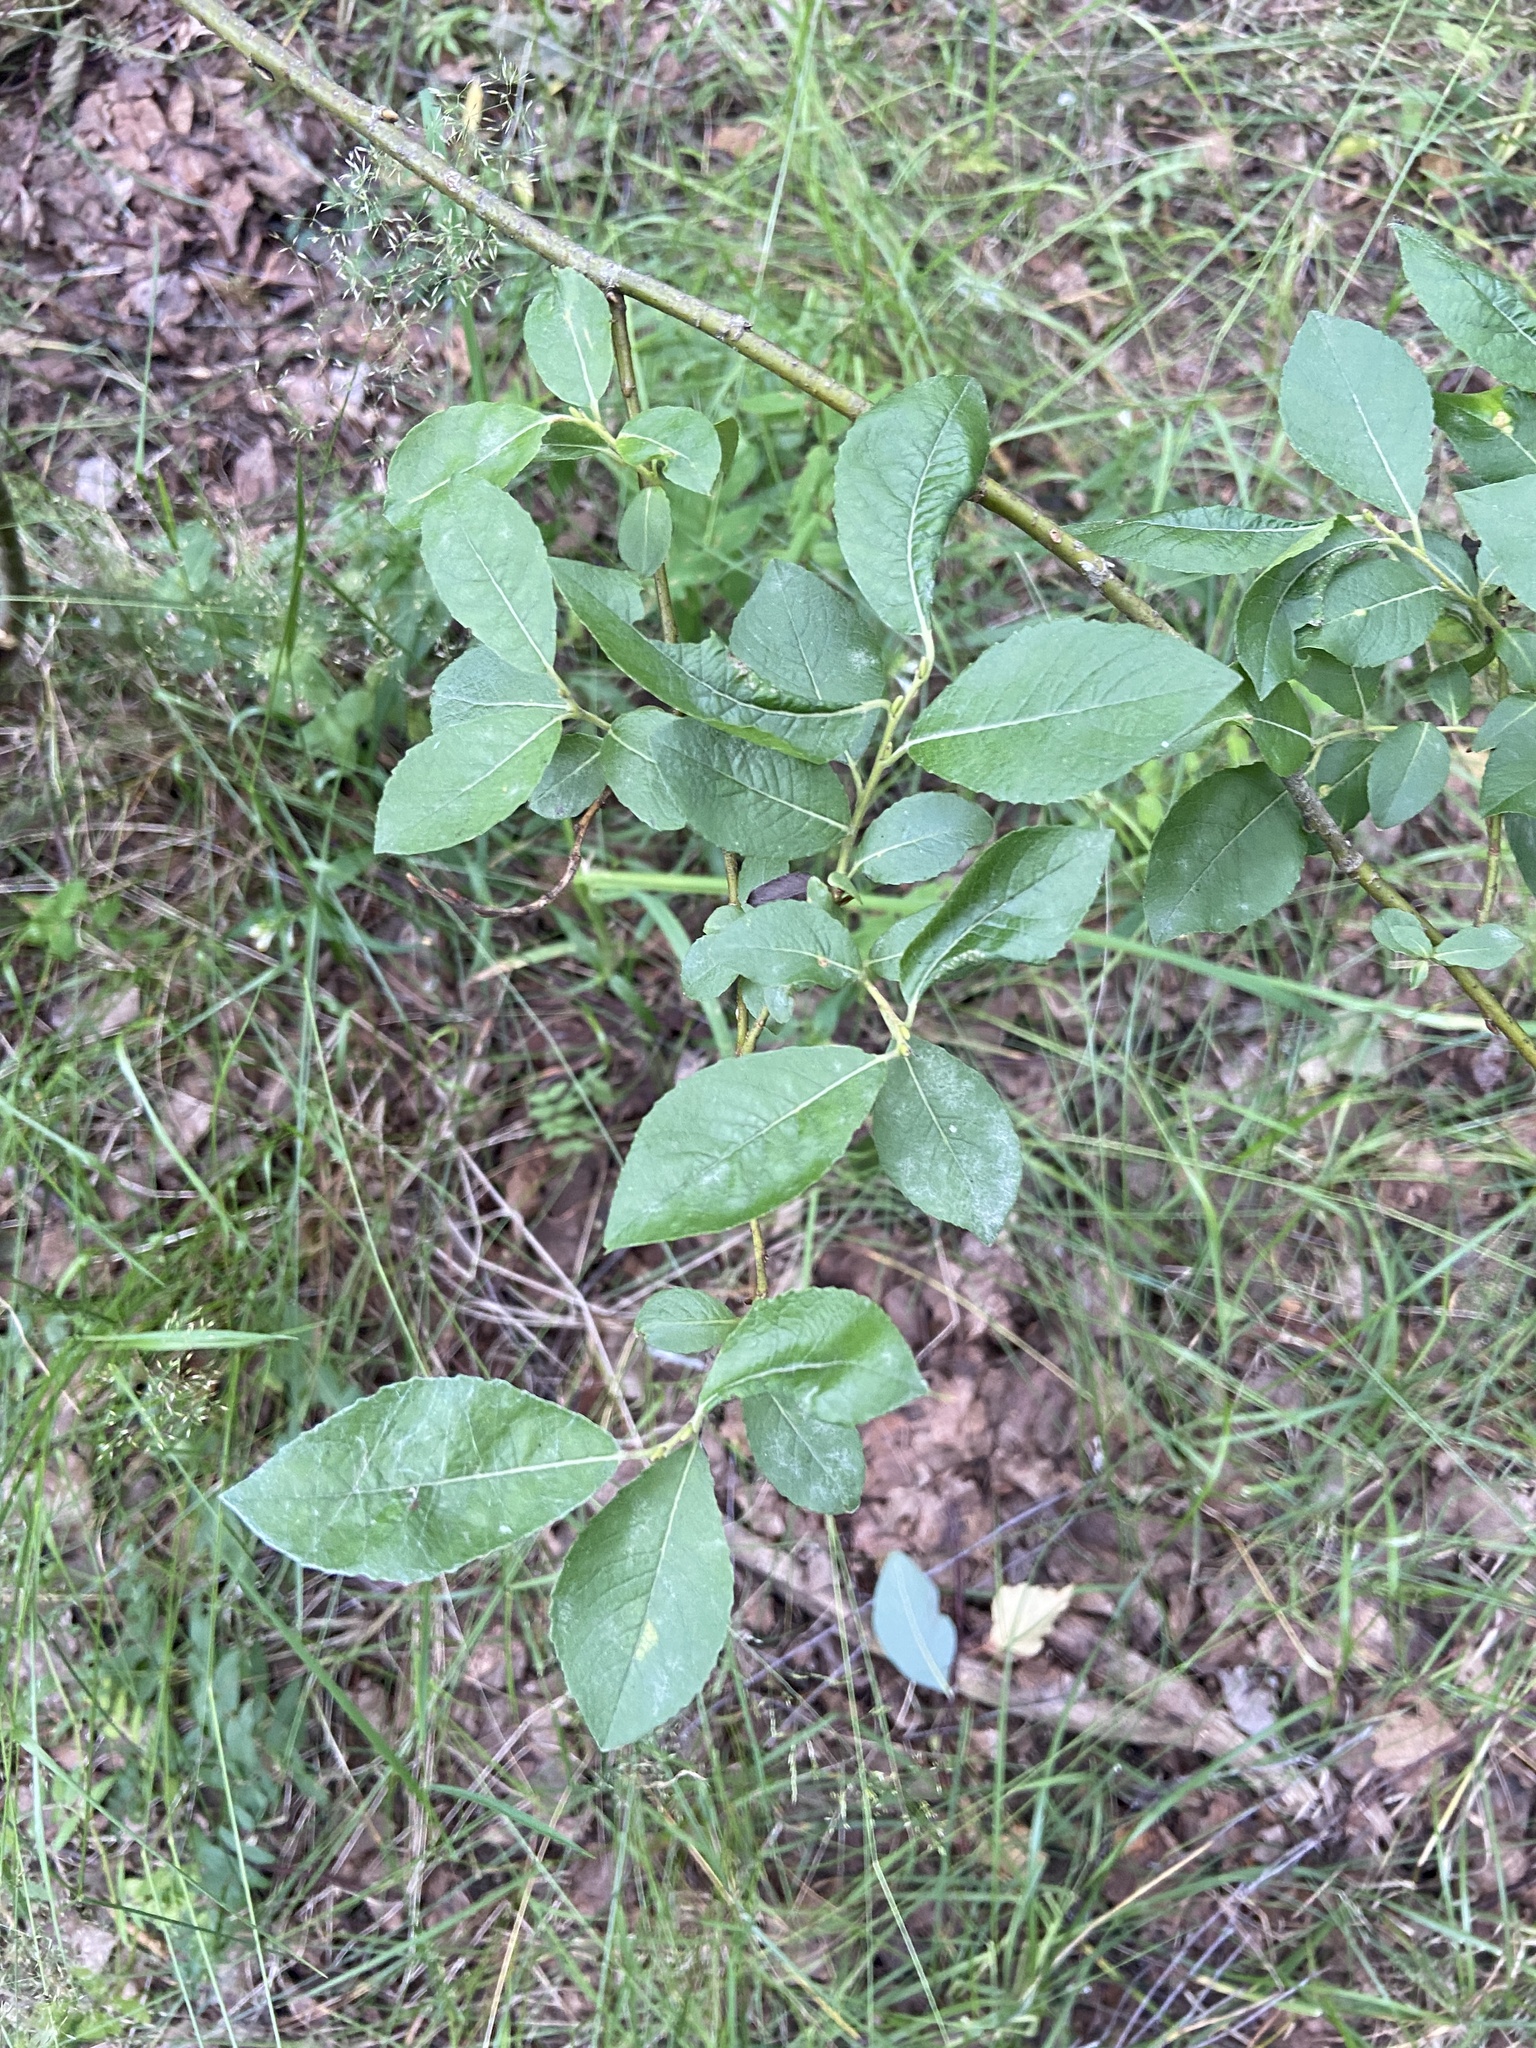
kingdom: Plantae
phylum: Tracheophyta
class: Magnoliopsida
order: Malpighiales
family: Salicaceae
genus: Salix
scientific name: Salix myrsinifolia
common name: Dark-leaved willow
